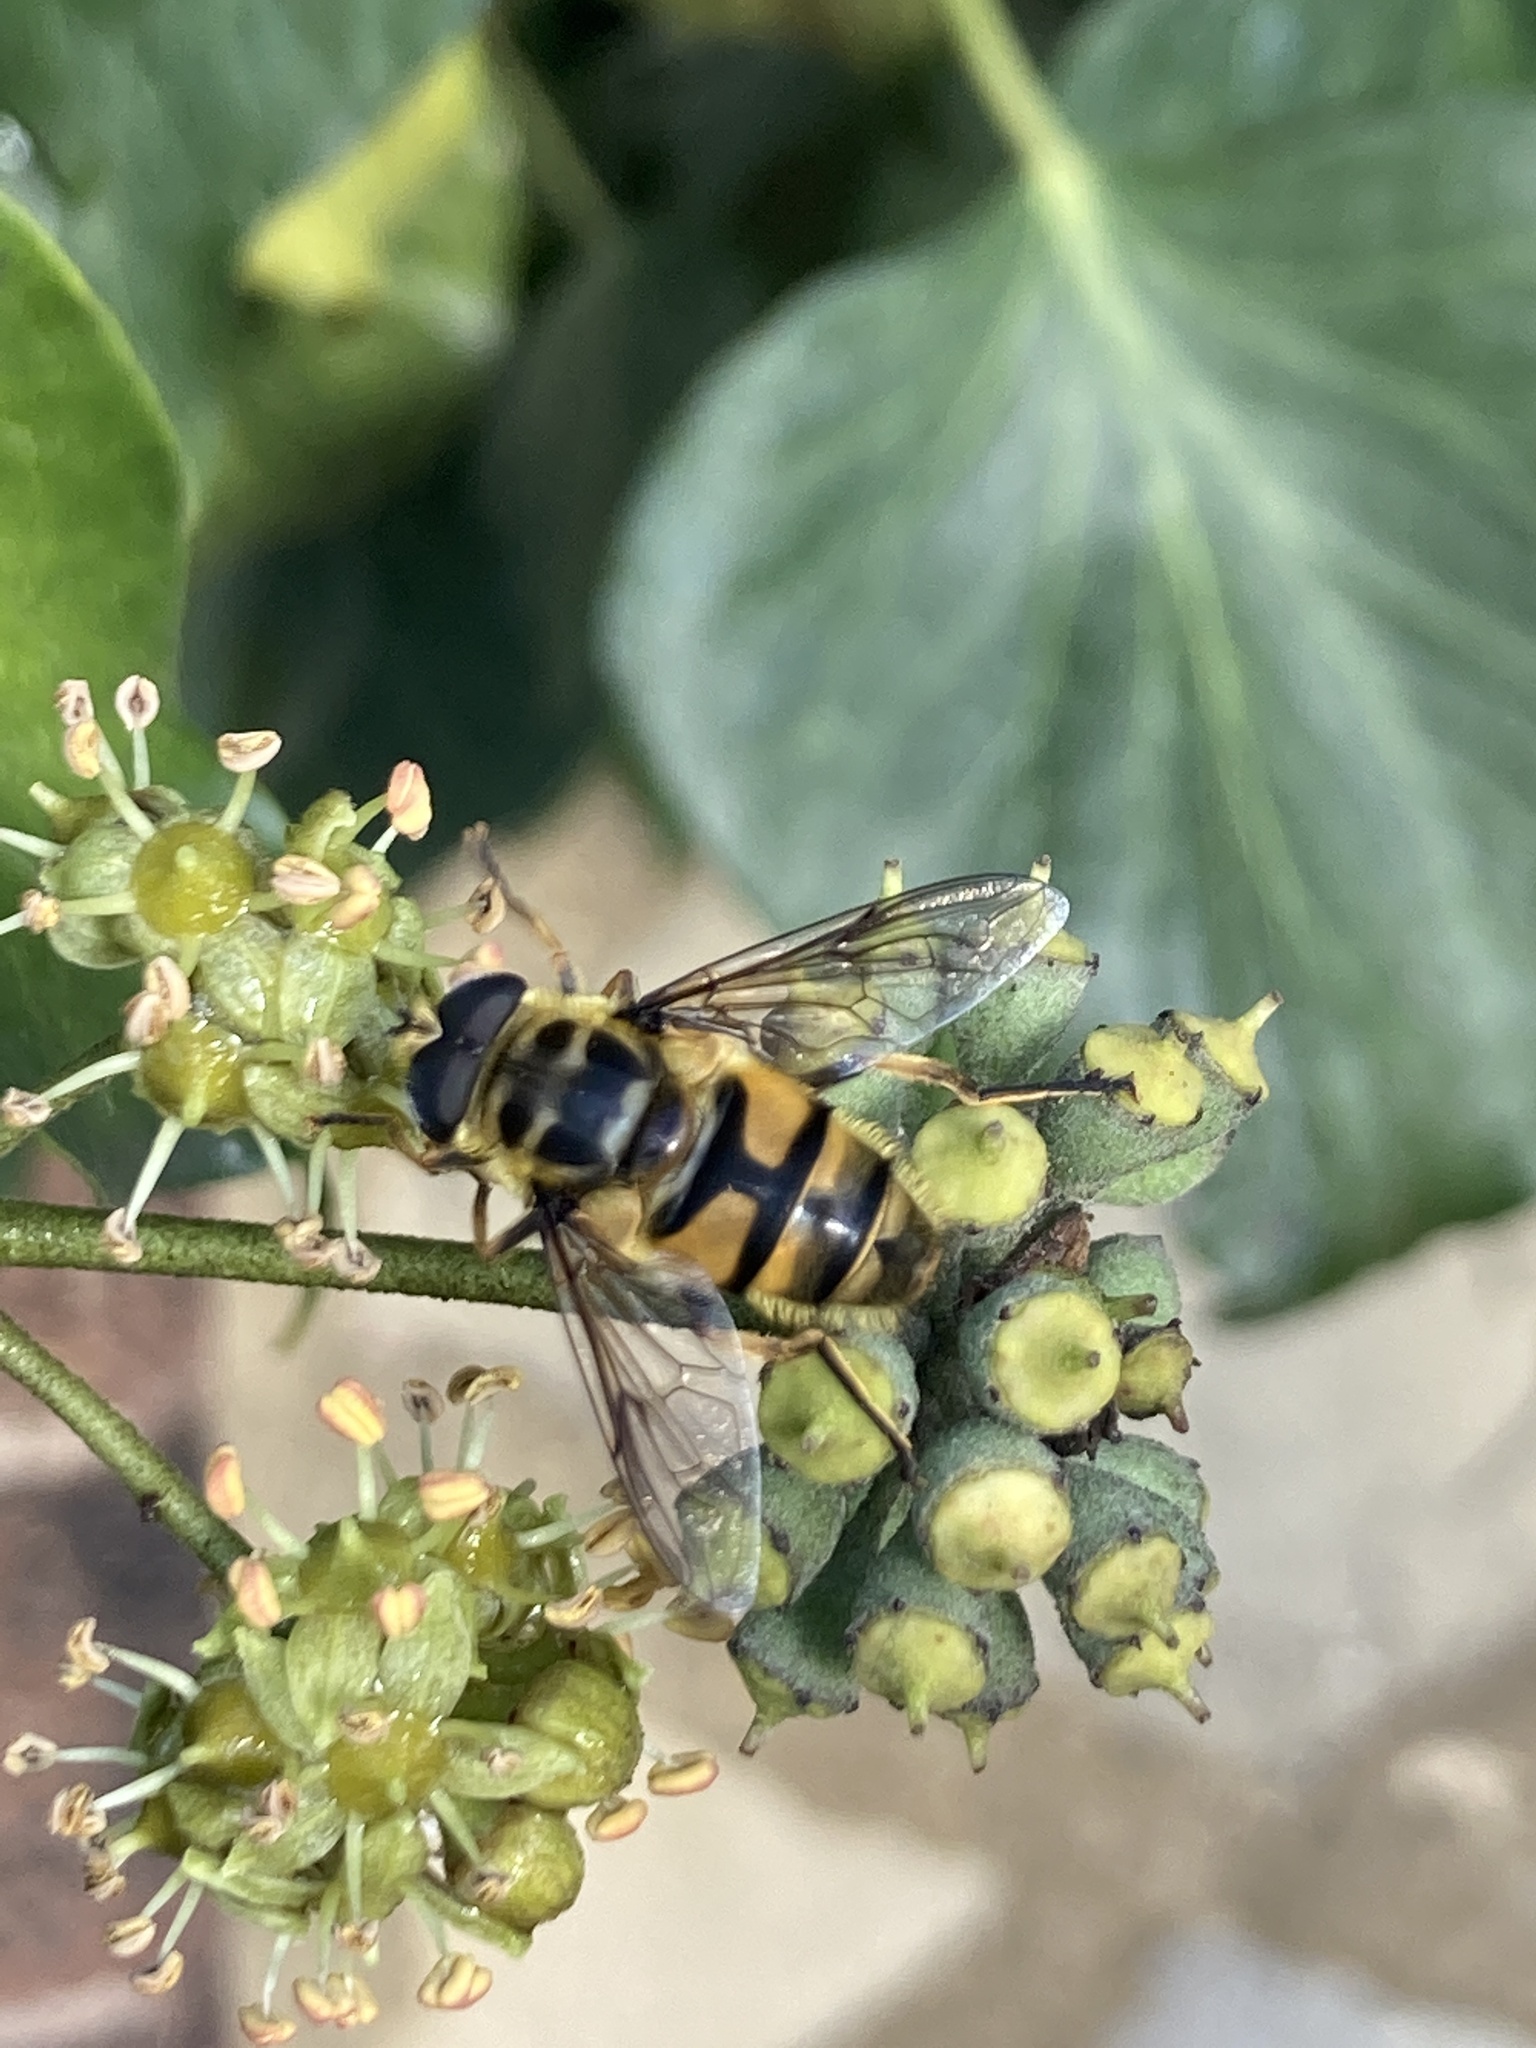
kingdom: Animalia
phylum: Arthropoda
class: Insecta
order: Diptera
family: Syrphidae
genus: Myathropa
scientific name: Myathropa florea
